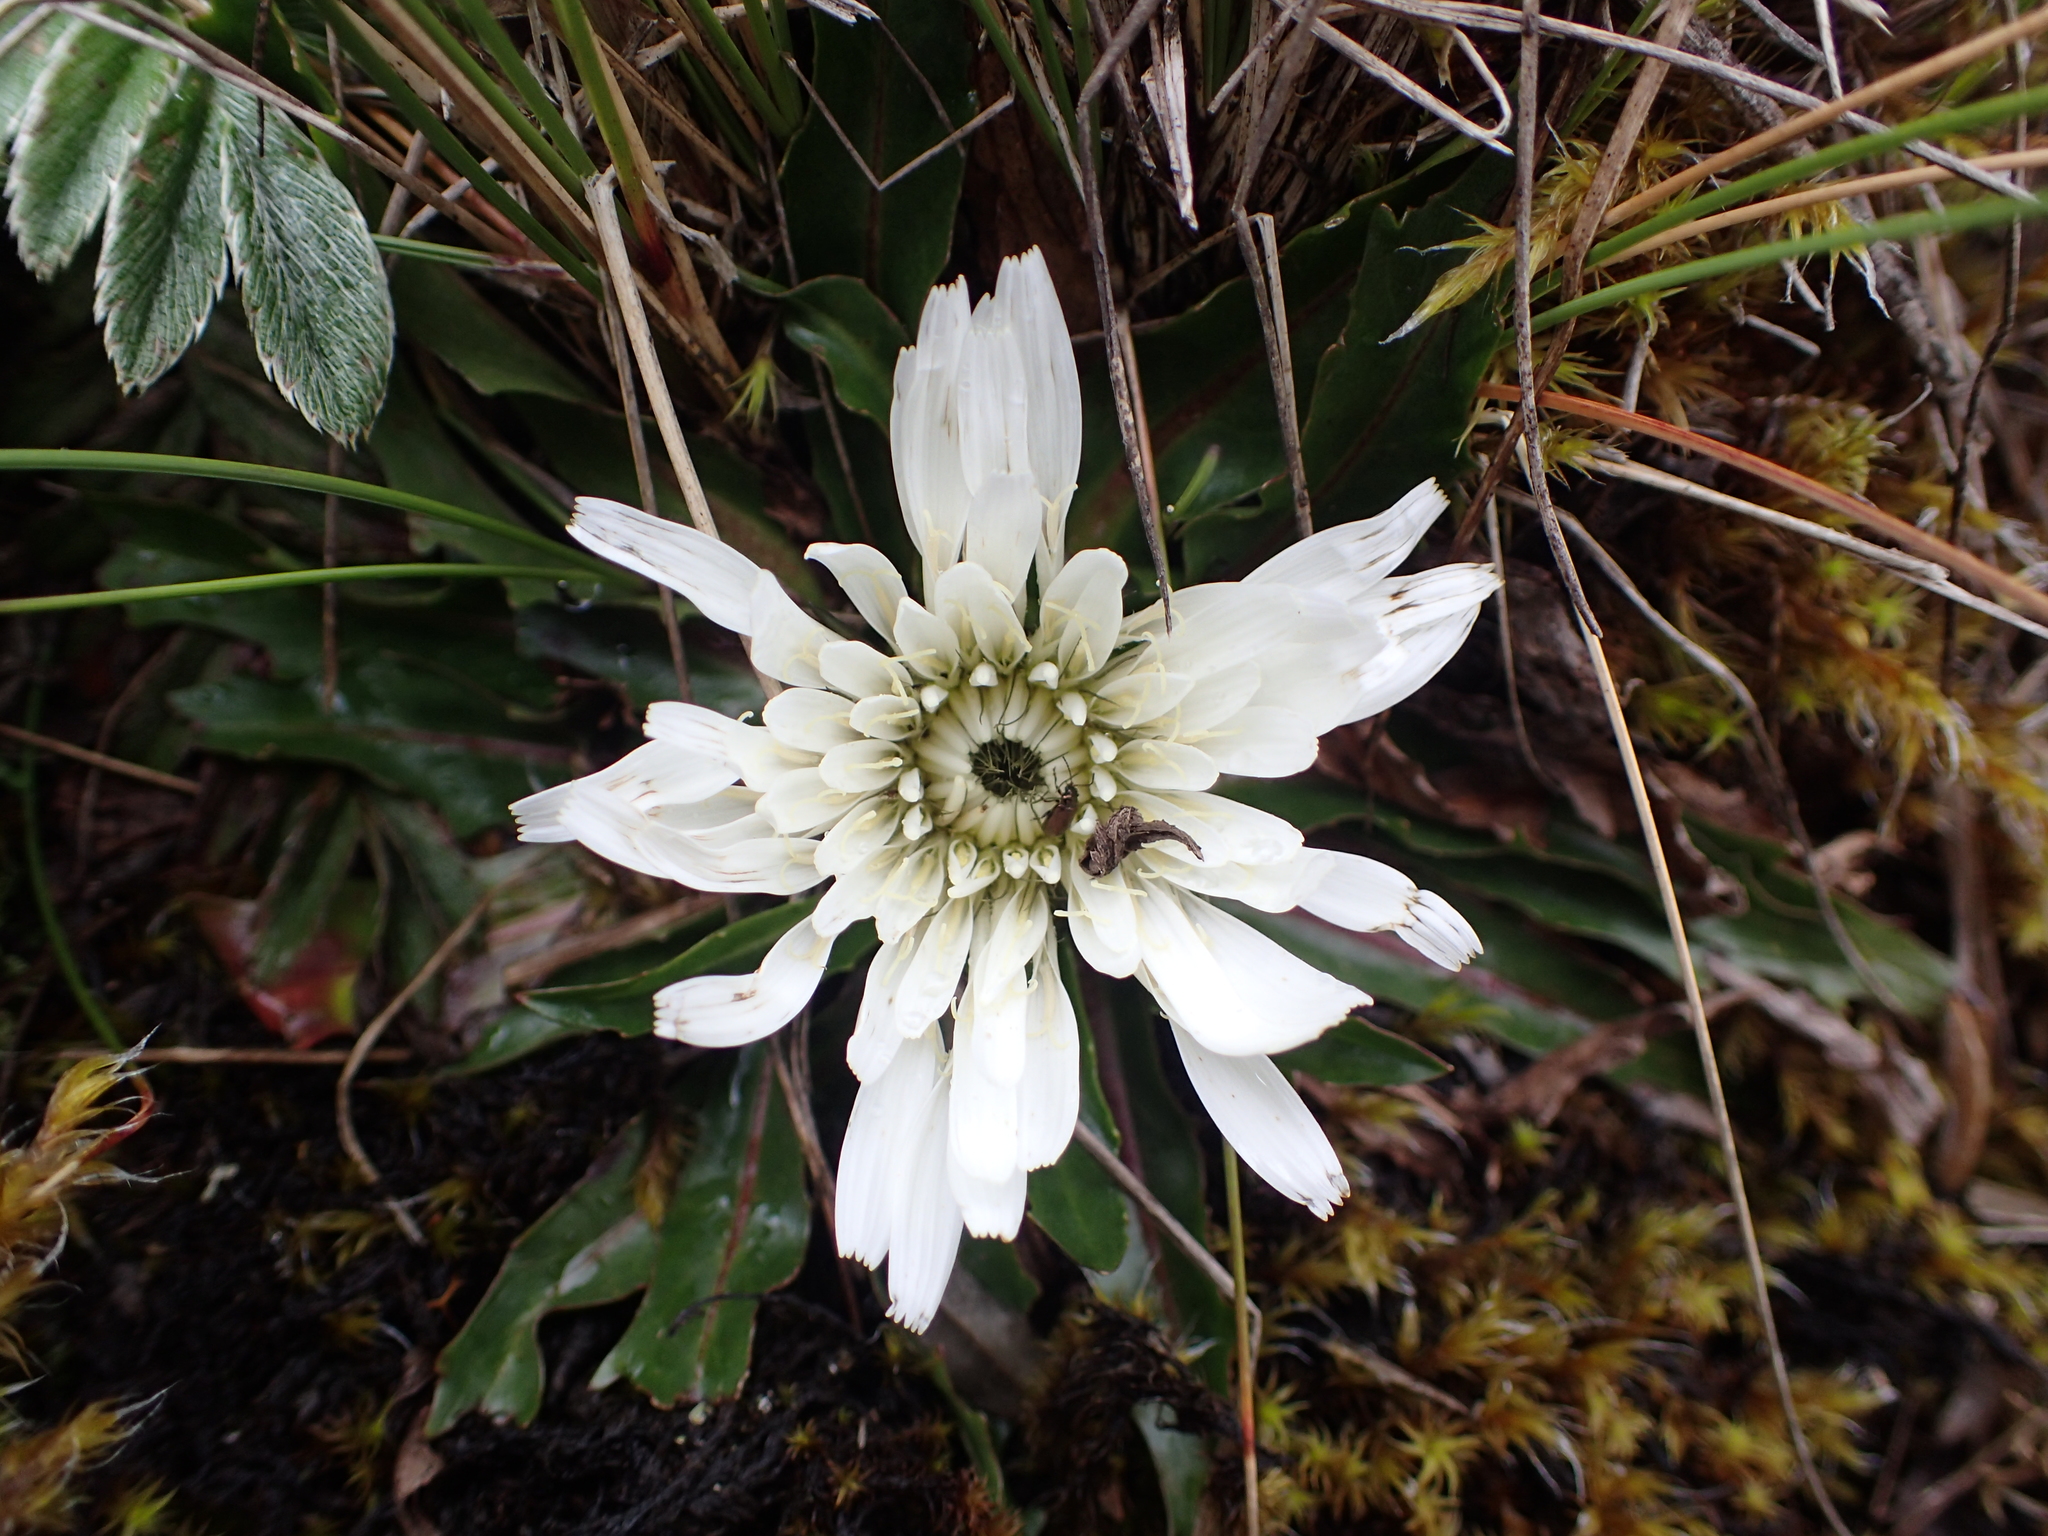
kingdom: Plantae
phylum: Tracheophyta
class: Magnoliopsida
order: Asterales
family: Asteraceae
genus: Hypochaeris
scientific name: Hypochaeris sessiliflora
